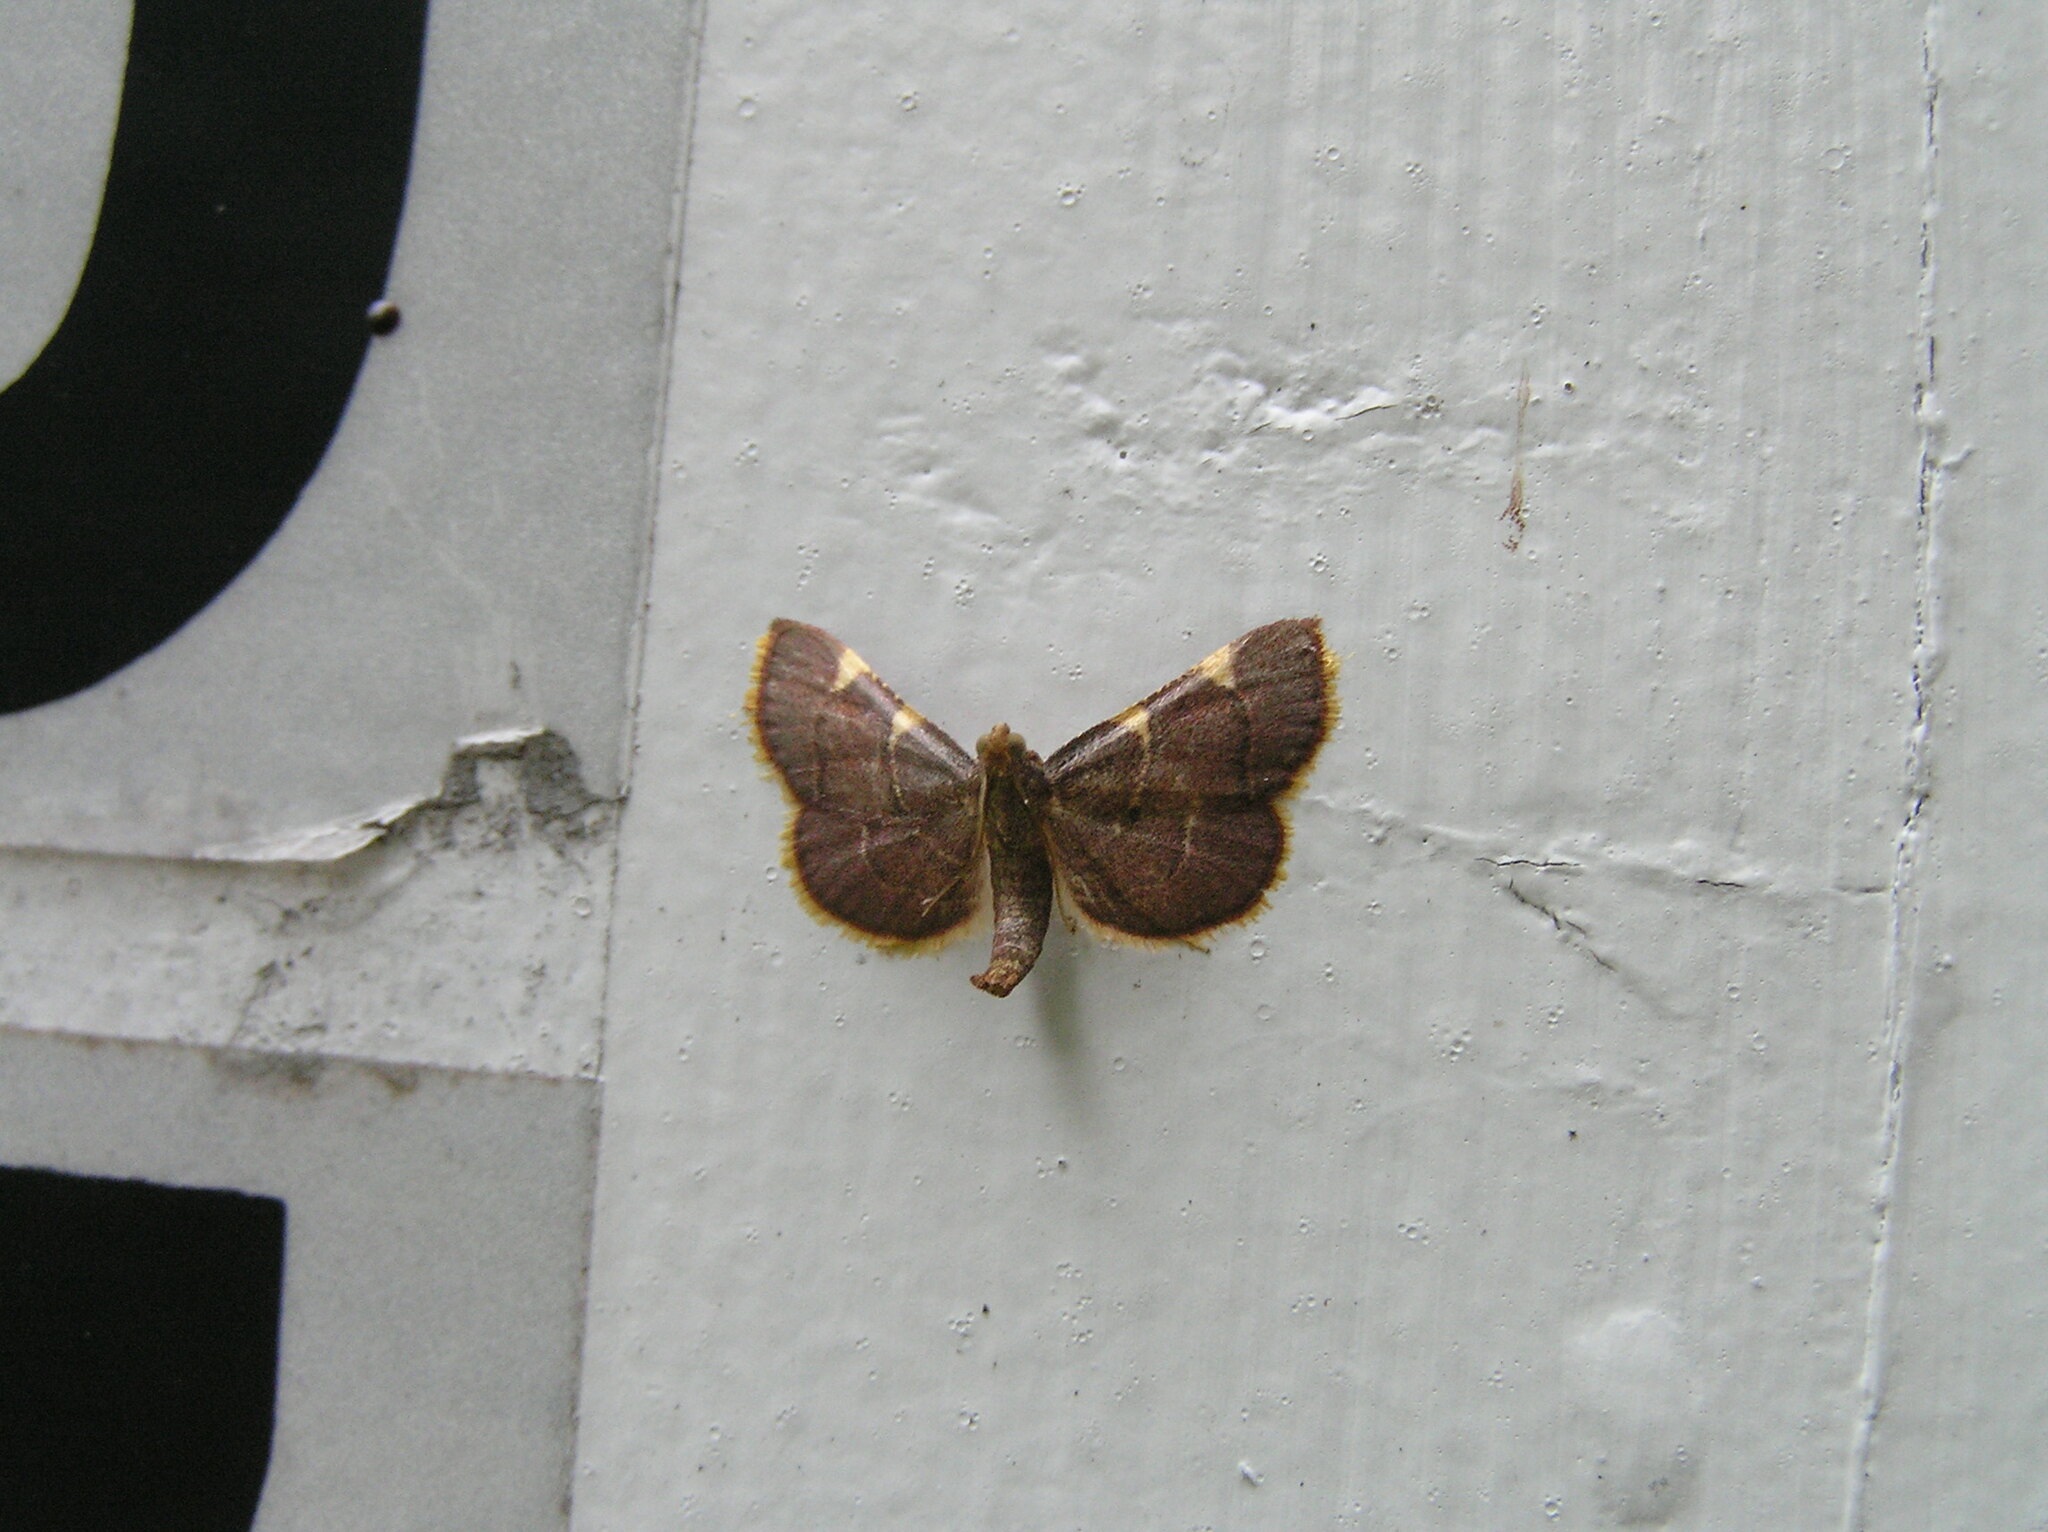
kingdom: Animalia
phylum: Arthropoda
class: Insecta
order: Lepidoptera
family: Pyralidae
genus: Hypsopygia
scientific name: Hypsopygia olinalis
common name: Yellow-fringed dolichomia moth
